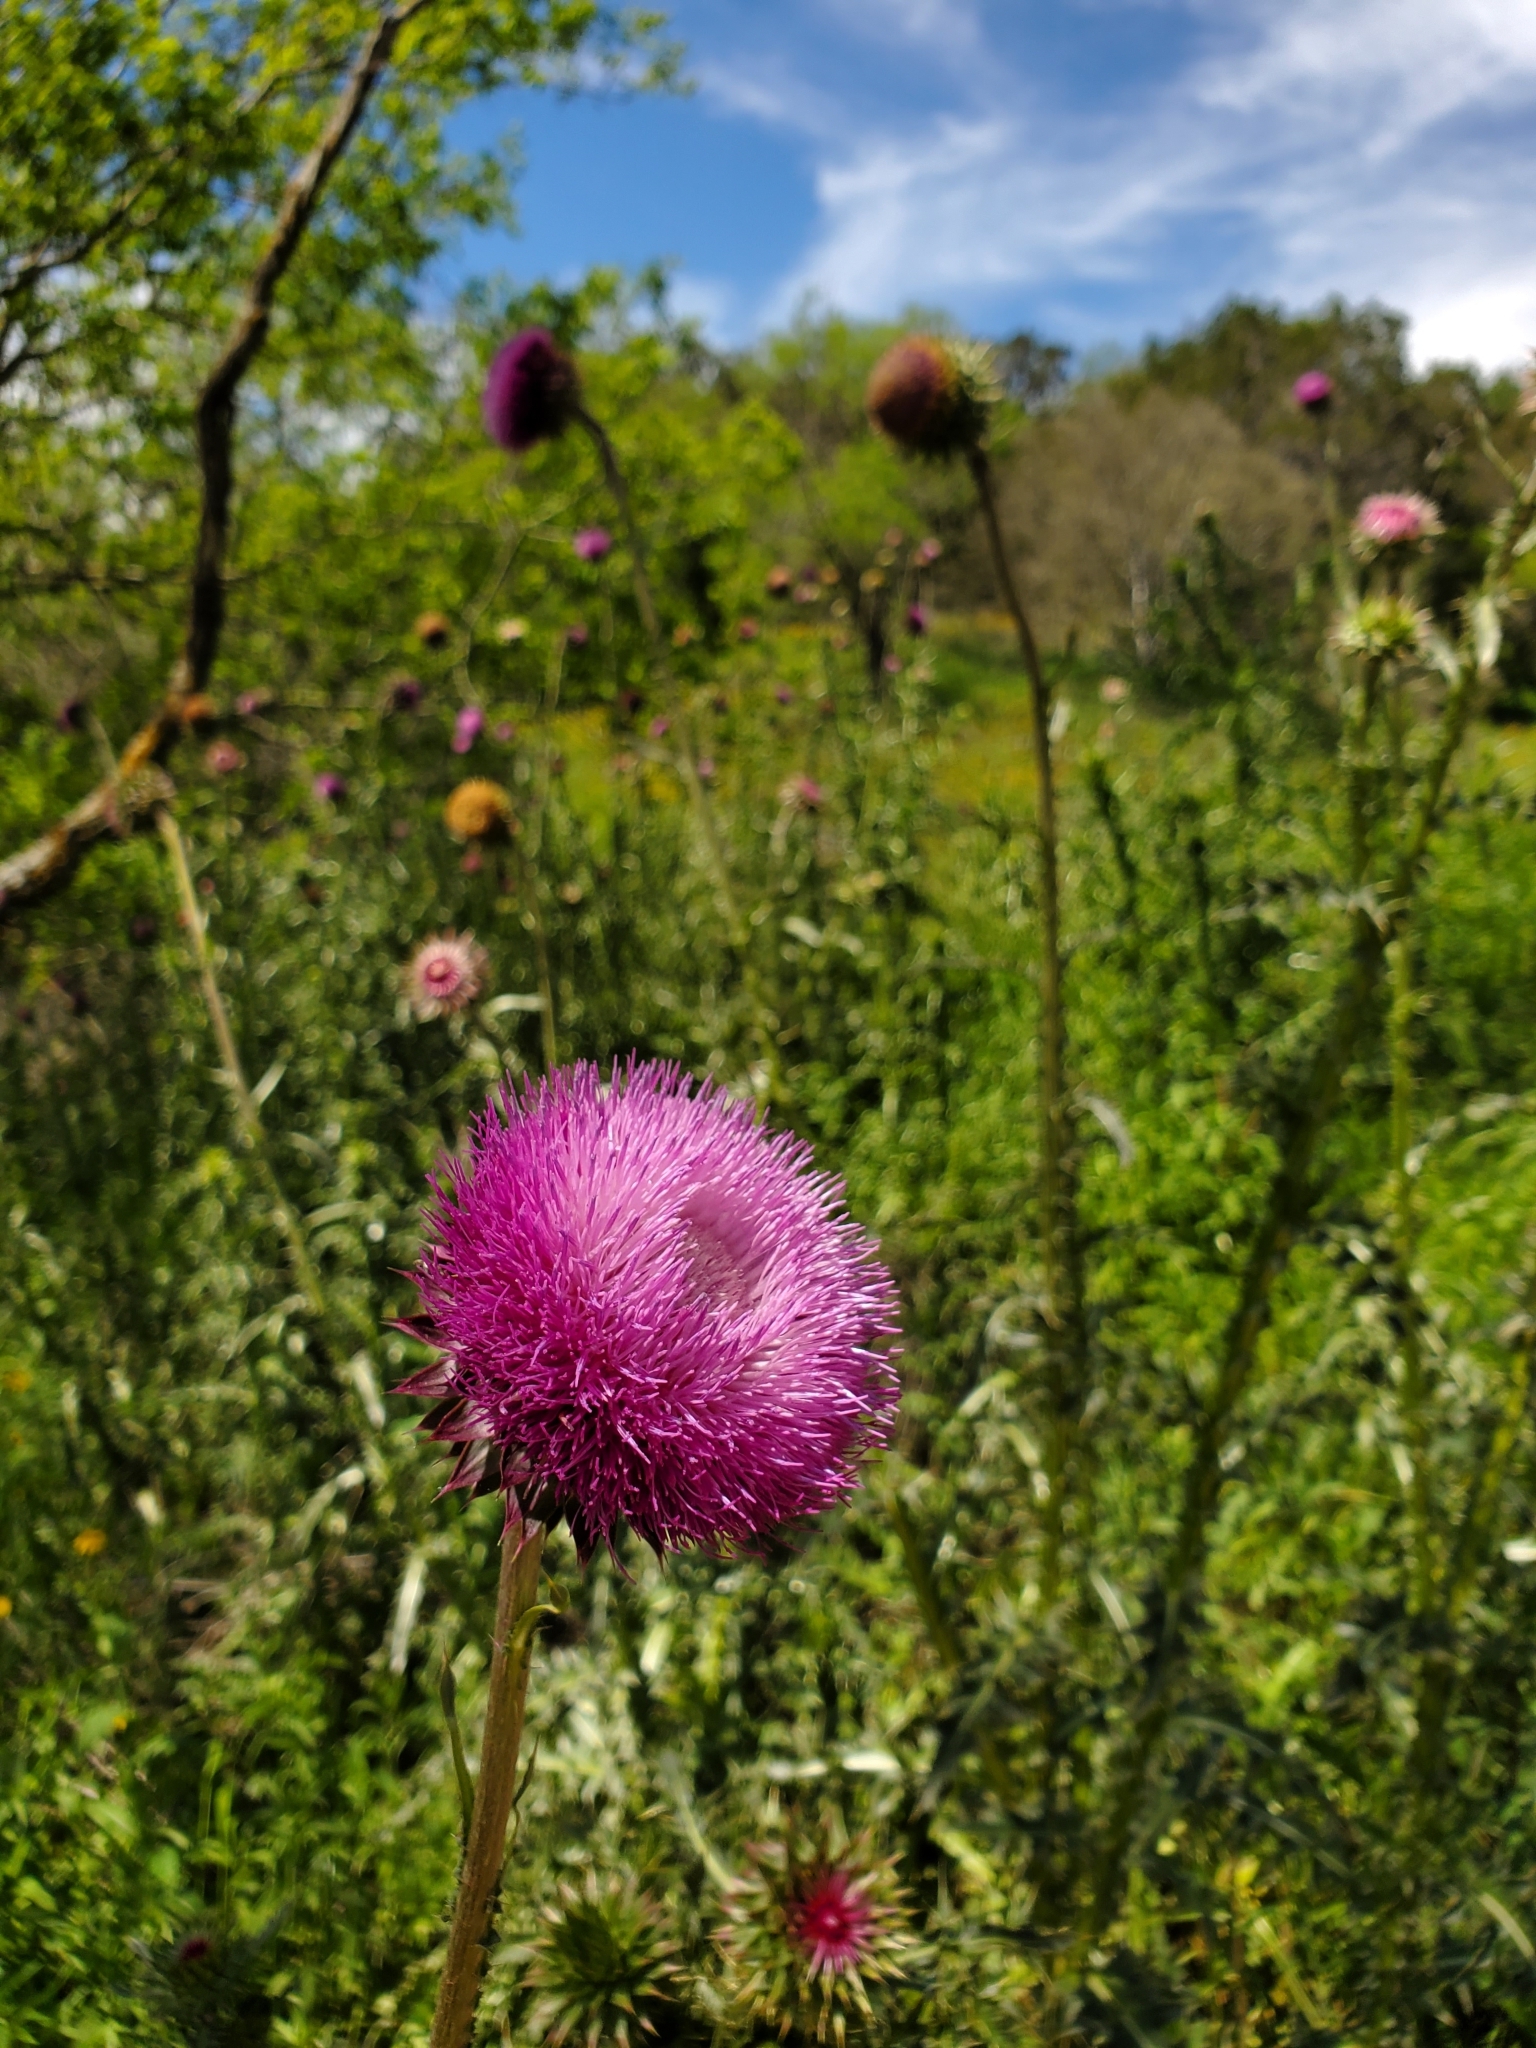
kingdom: Plantae
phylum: Tracheophyta
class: Magnoliopsida
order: Asterales
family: Asteraceae
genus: Carduus
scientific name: Carduus nutans
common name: Musk thistle
